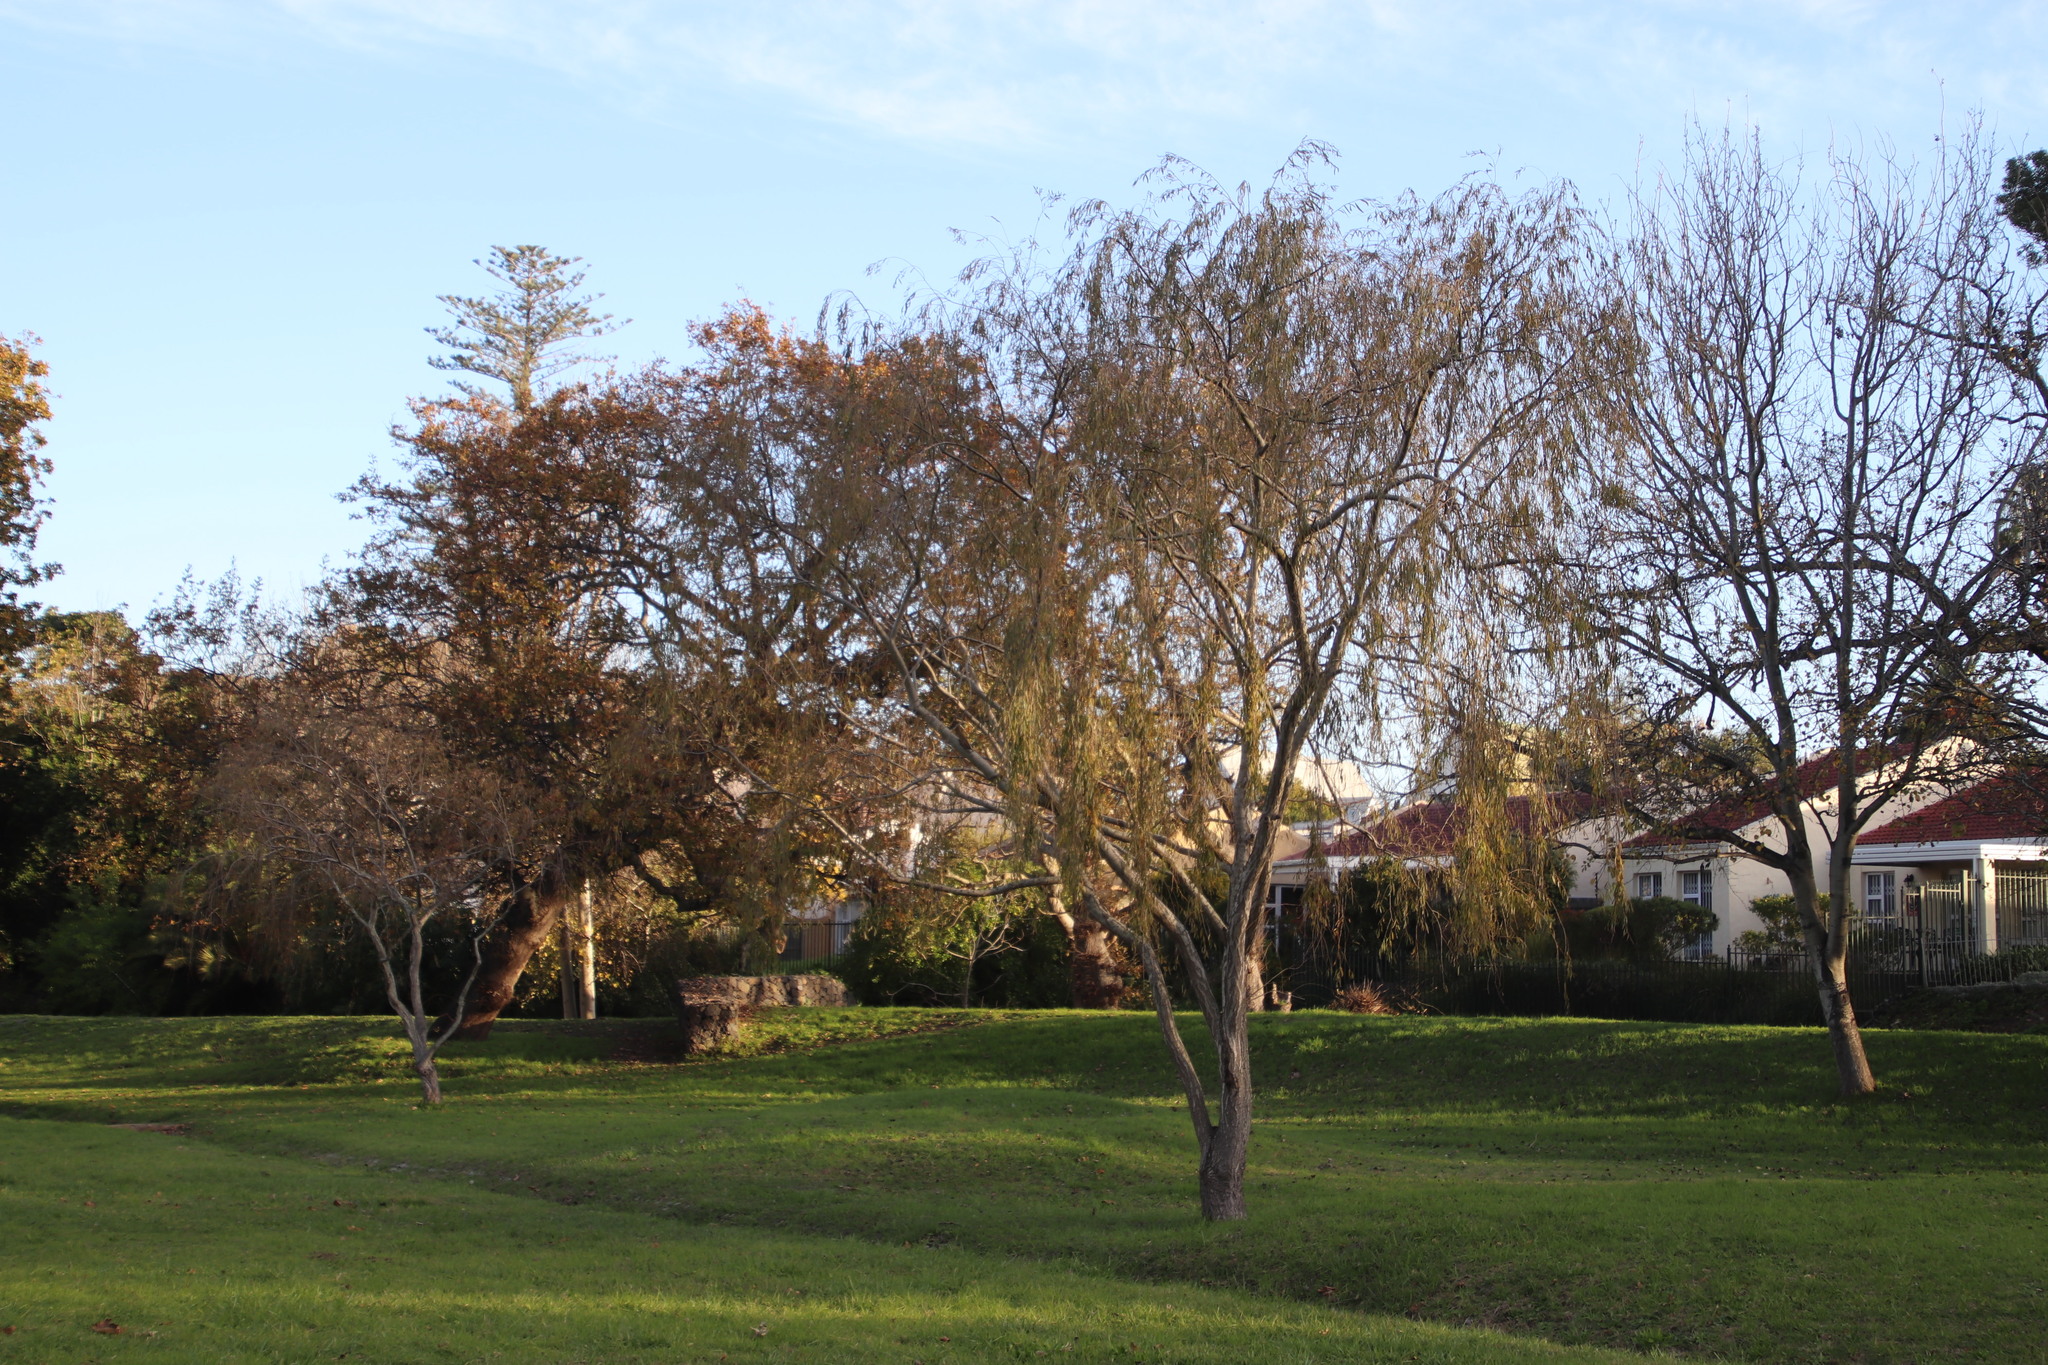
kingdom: Plantae
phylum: Tracheophyta
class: Magnoliopsida
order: Malpighiales
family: Salicaceae
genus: Salix
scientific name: Salix babylonica
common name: Weeping willow
